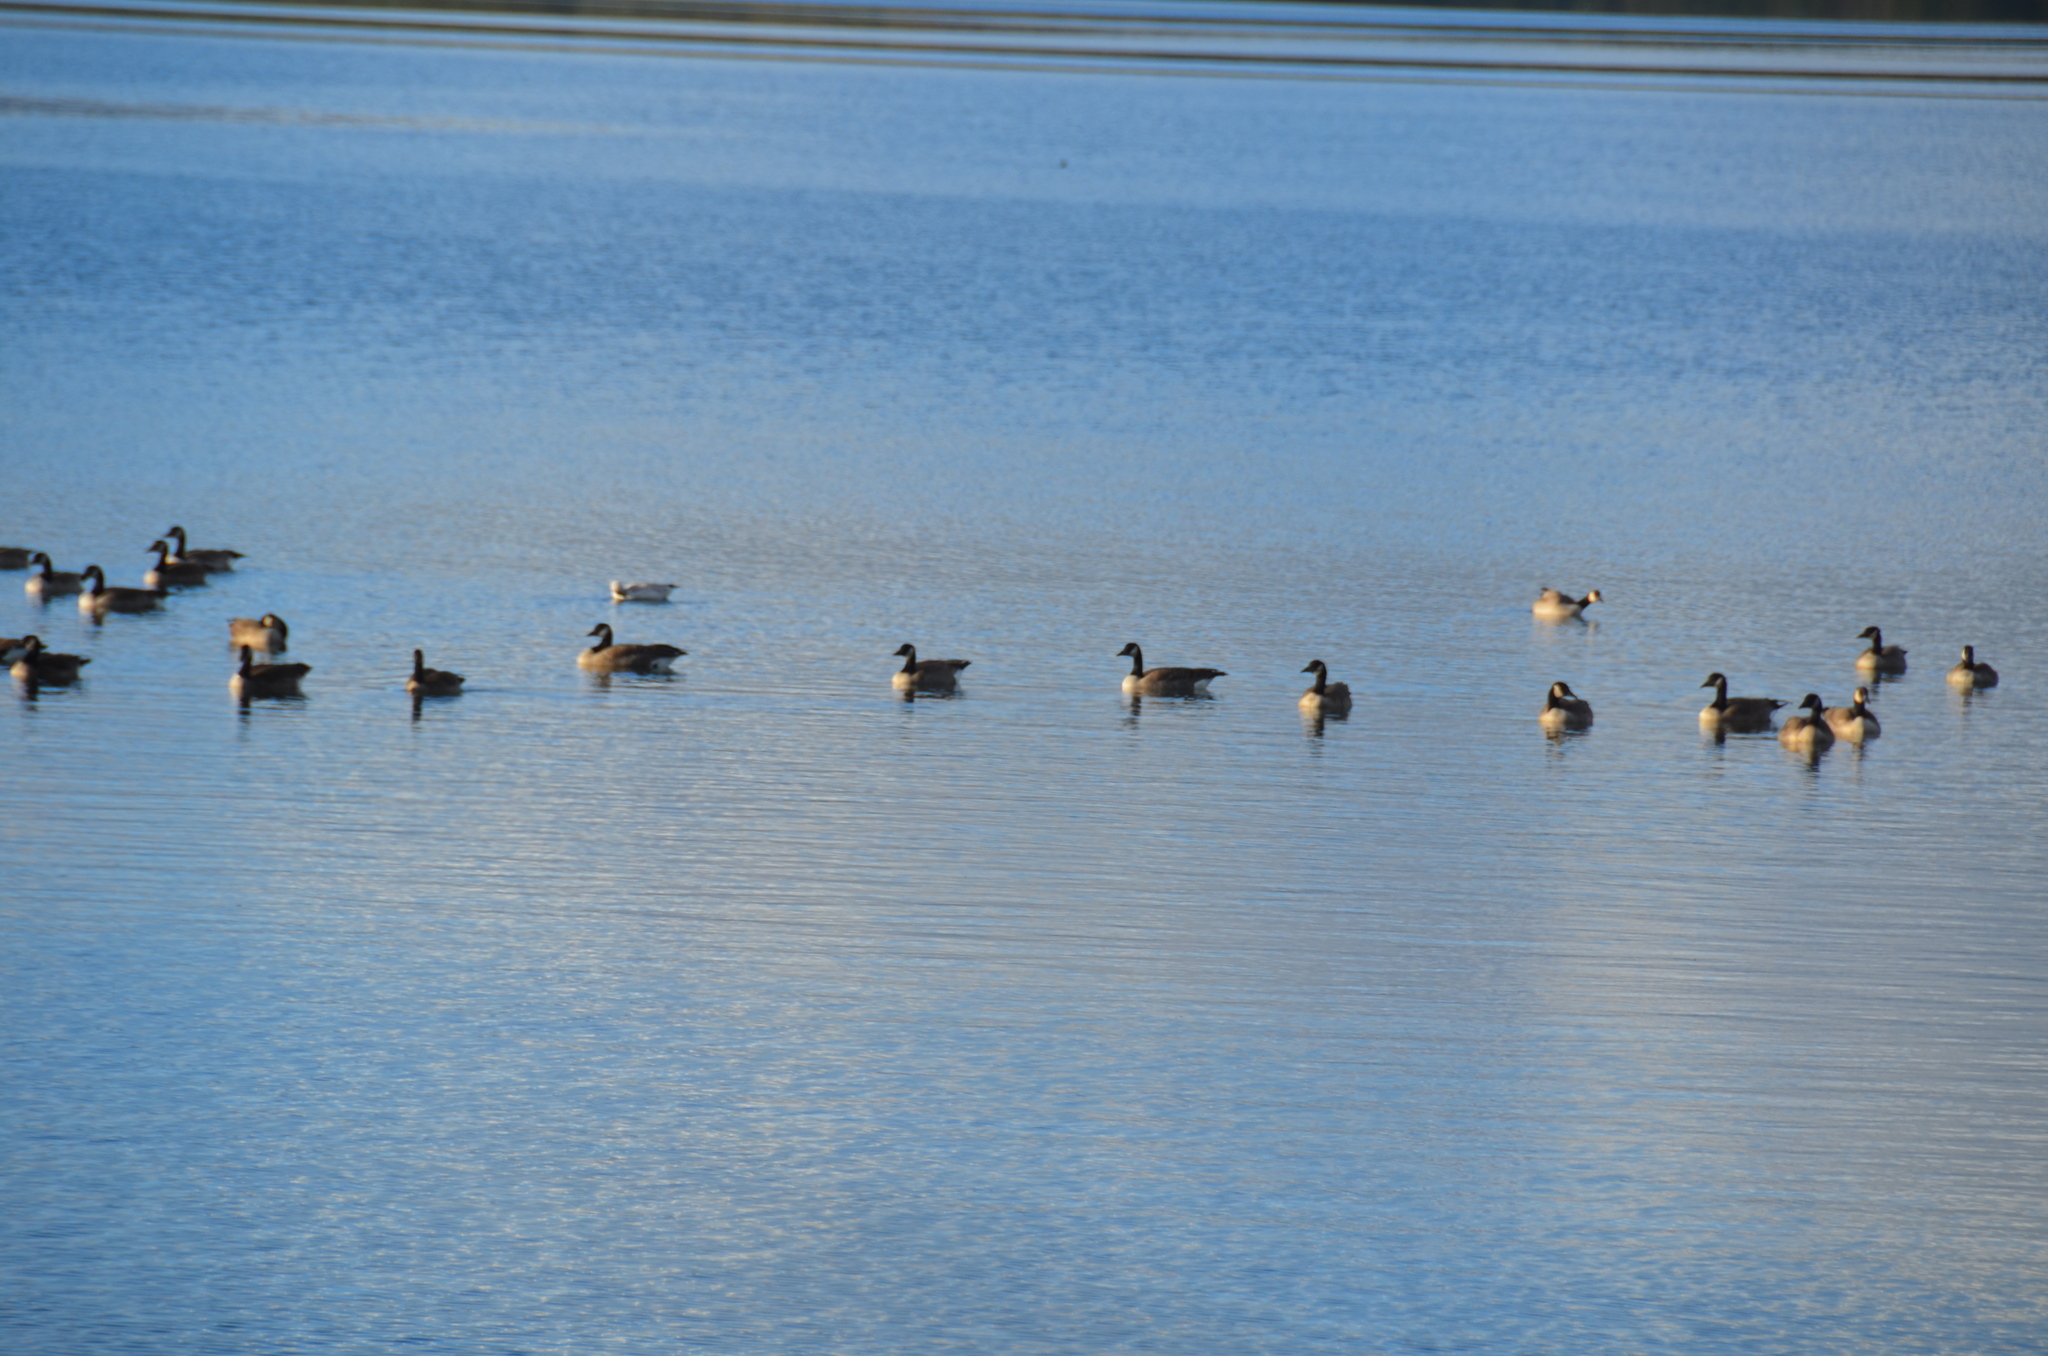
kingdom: Animalia
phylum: Chordata
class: Aves
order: Anseriformes
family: Anatidae
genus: Branta
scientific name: Branta canadensis
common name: Canada goose
